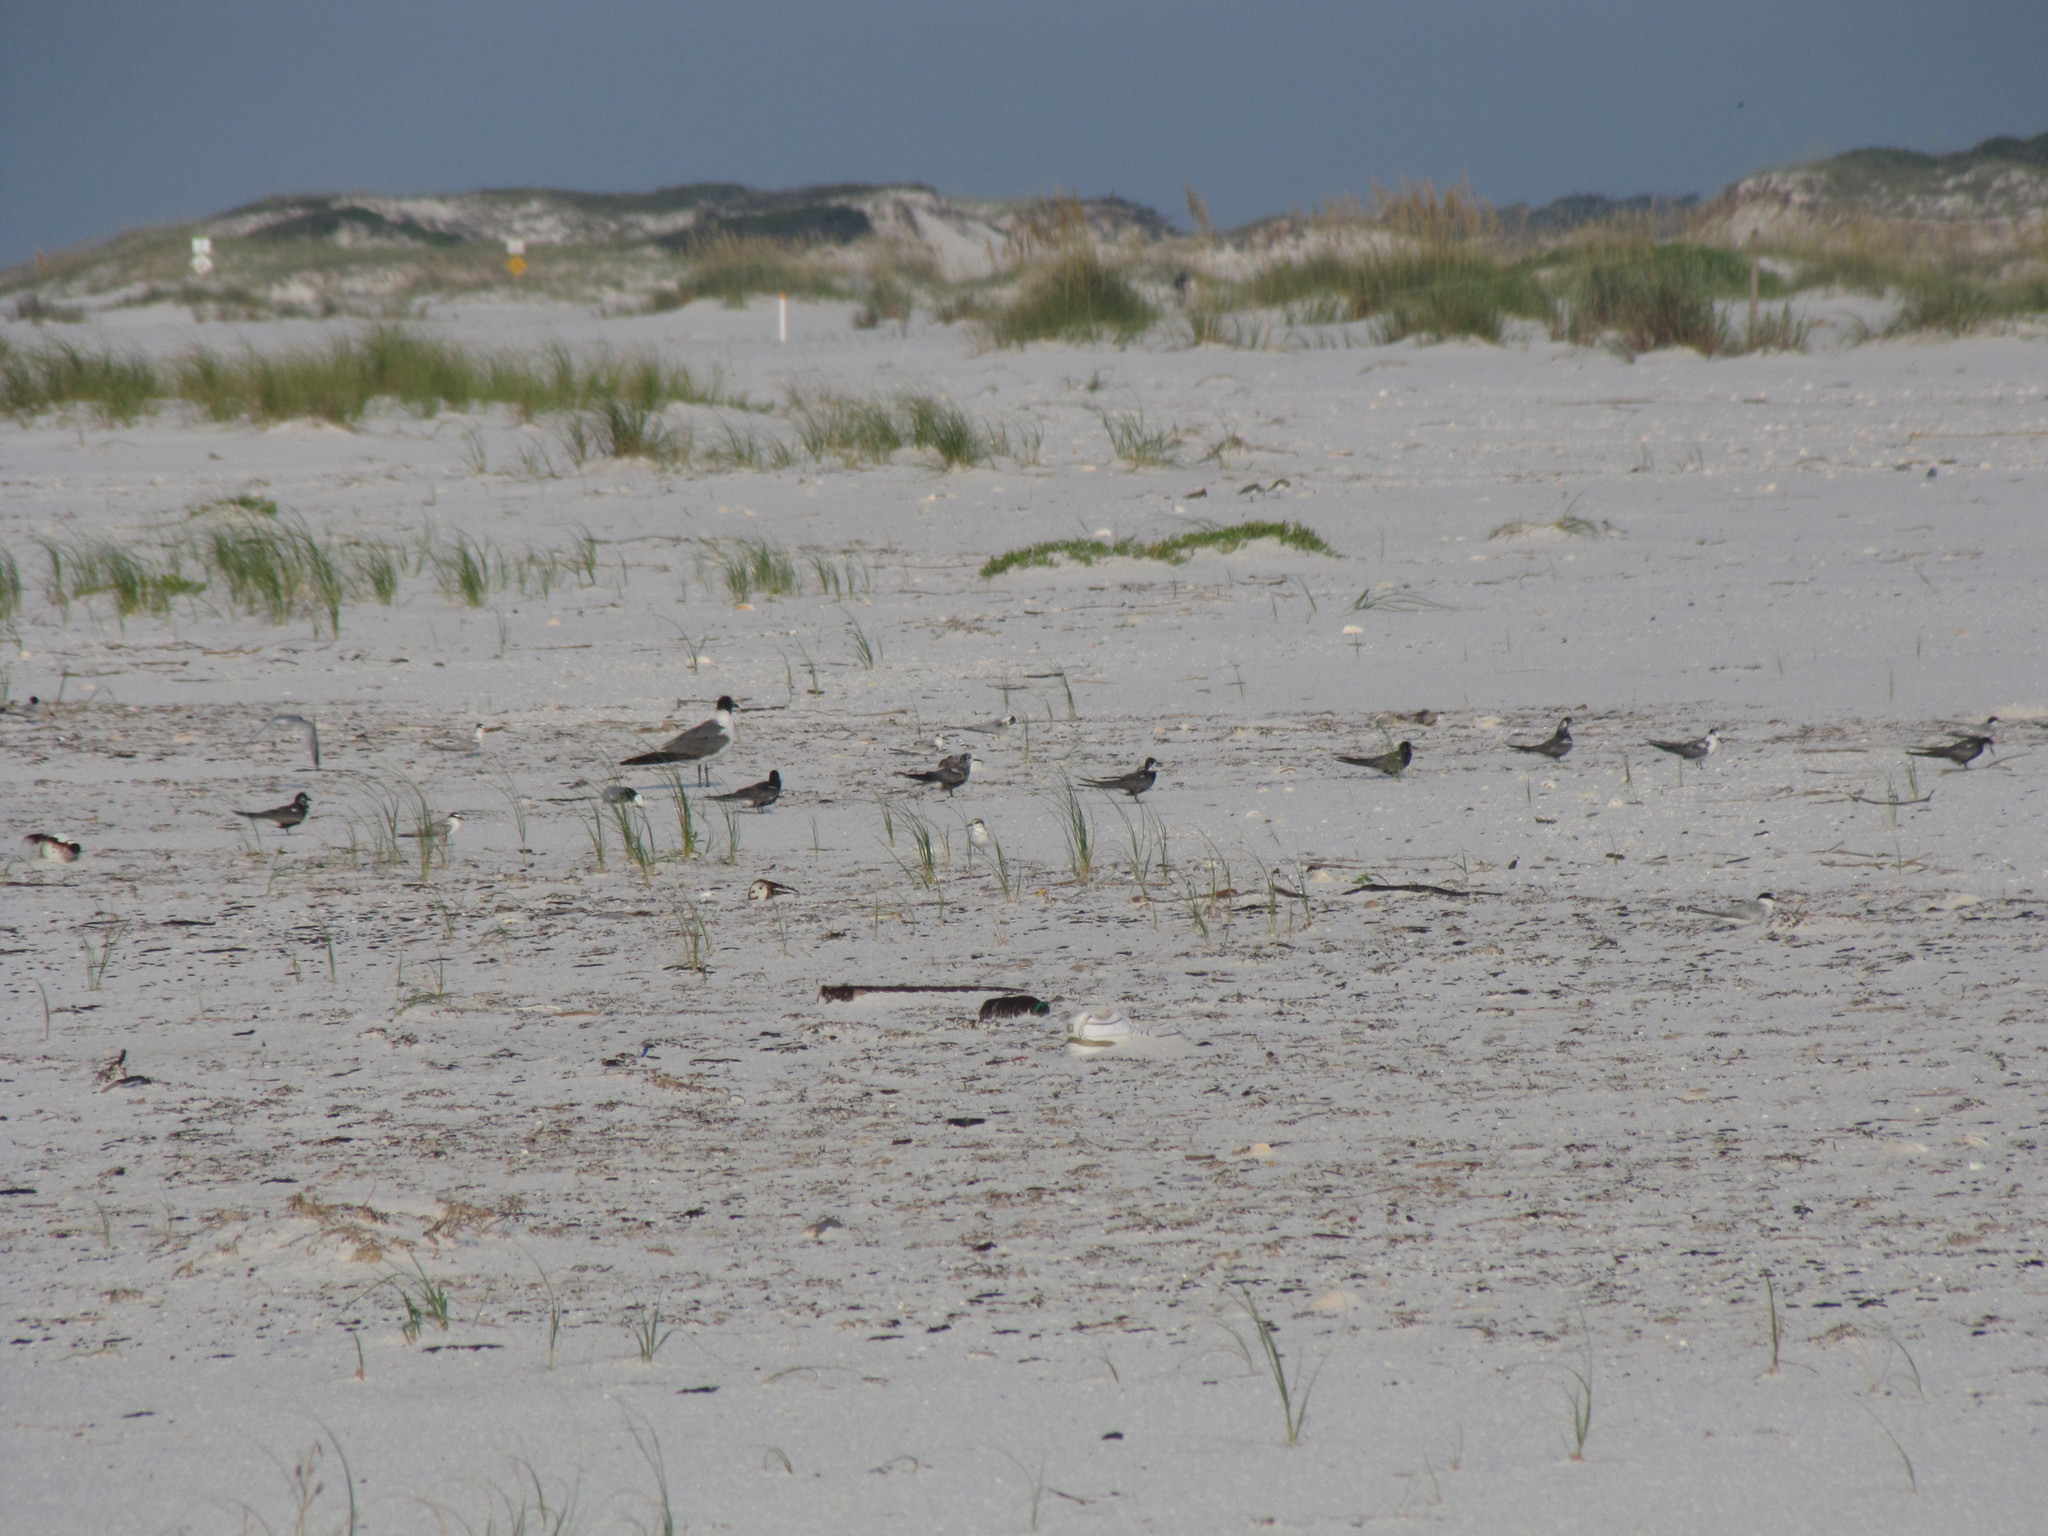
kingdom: Animalia
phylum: Chordata
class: Aves
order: Charadriiformes
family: Laridae
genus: Leucophaeus
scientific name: Leucophaeus atricilla
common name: Laughing gull
